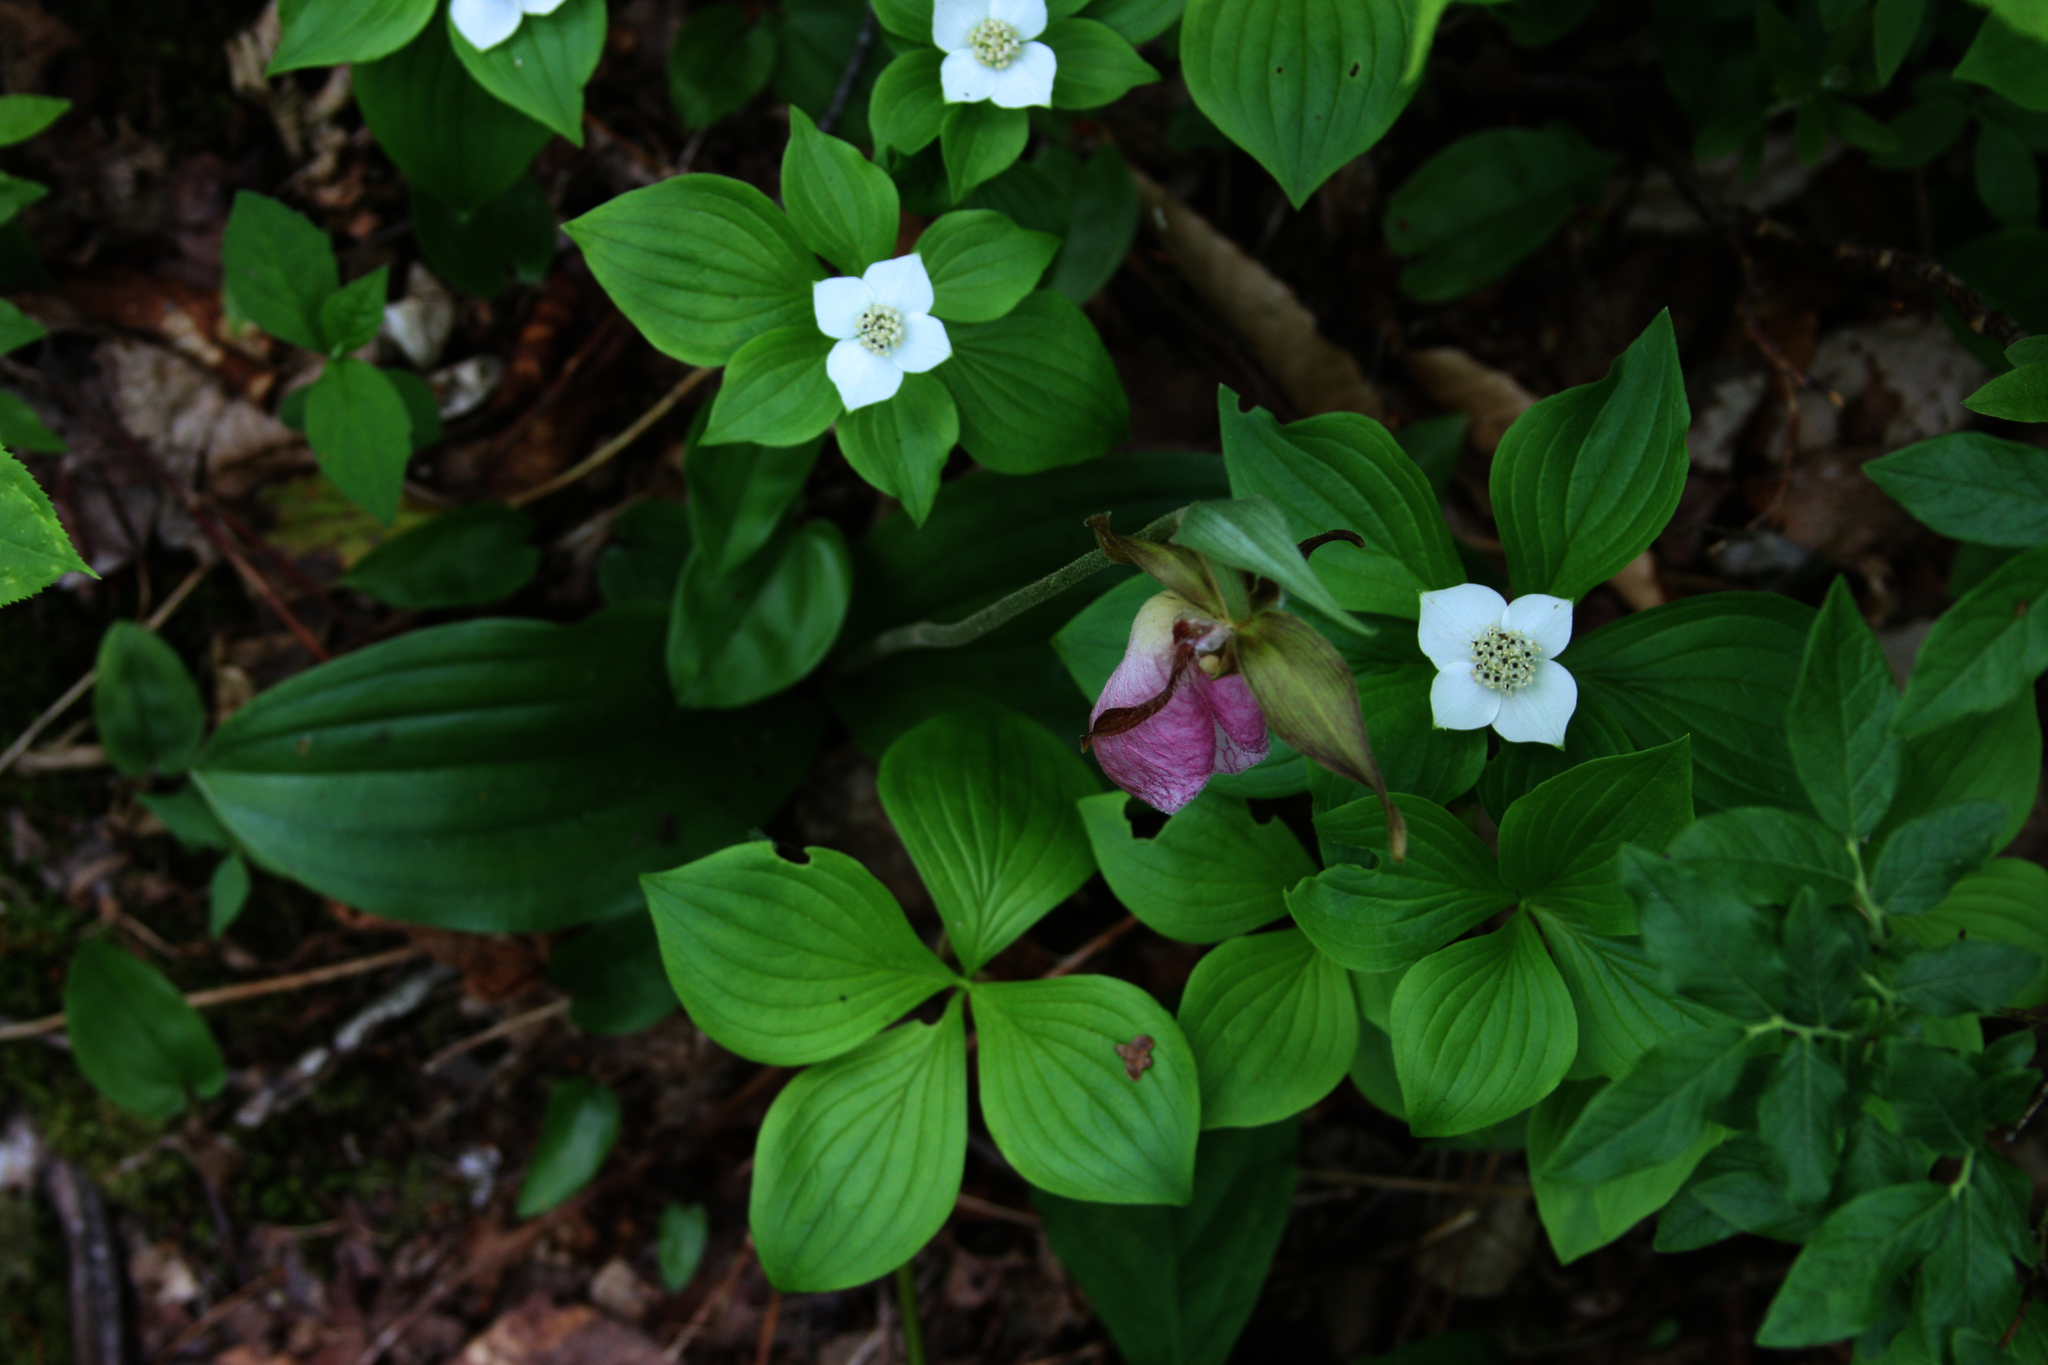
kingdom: Plantae
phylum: Tracheophyta
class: Magnoliopsida
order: Cornales
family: Cornaceae
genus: Cornus
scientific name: Cornus canadensis
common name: Creeping dogwood
